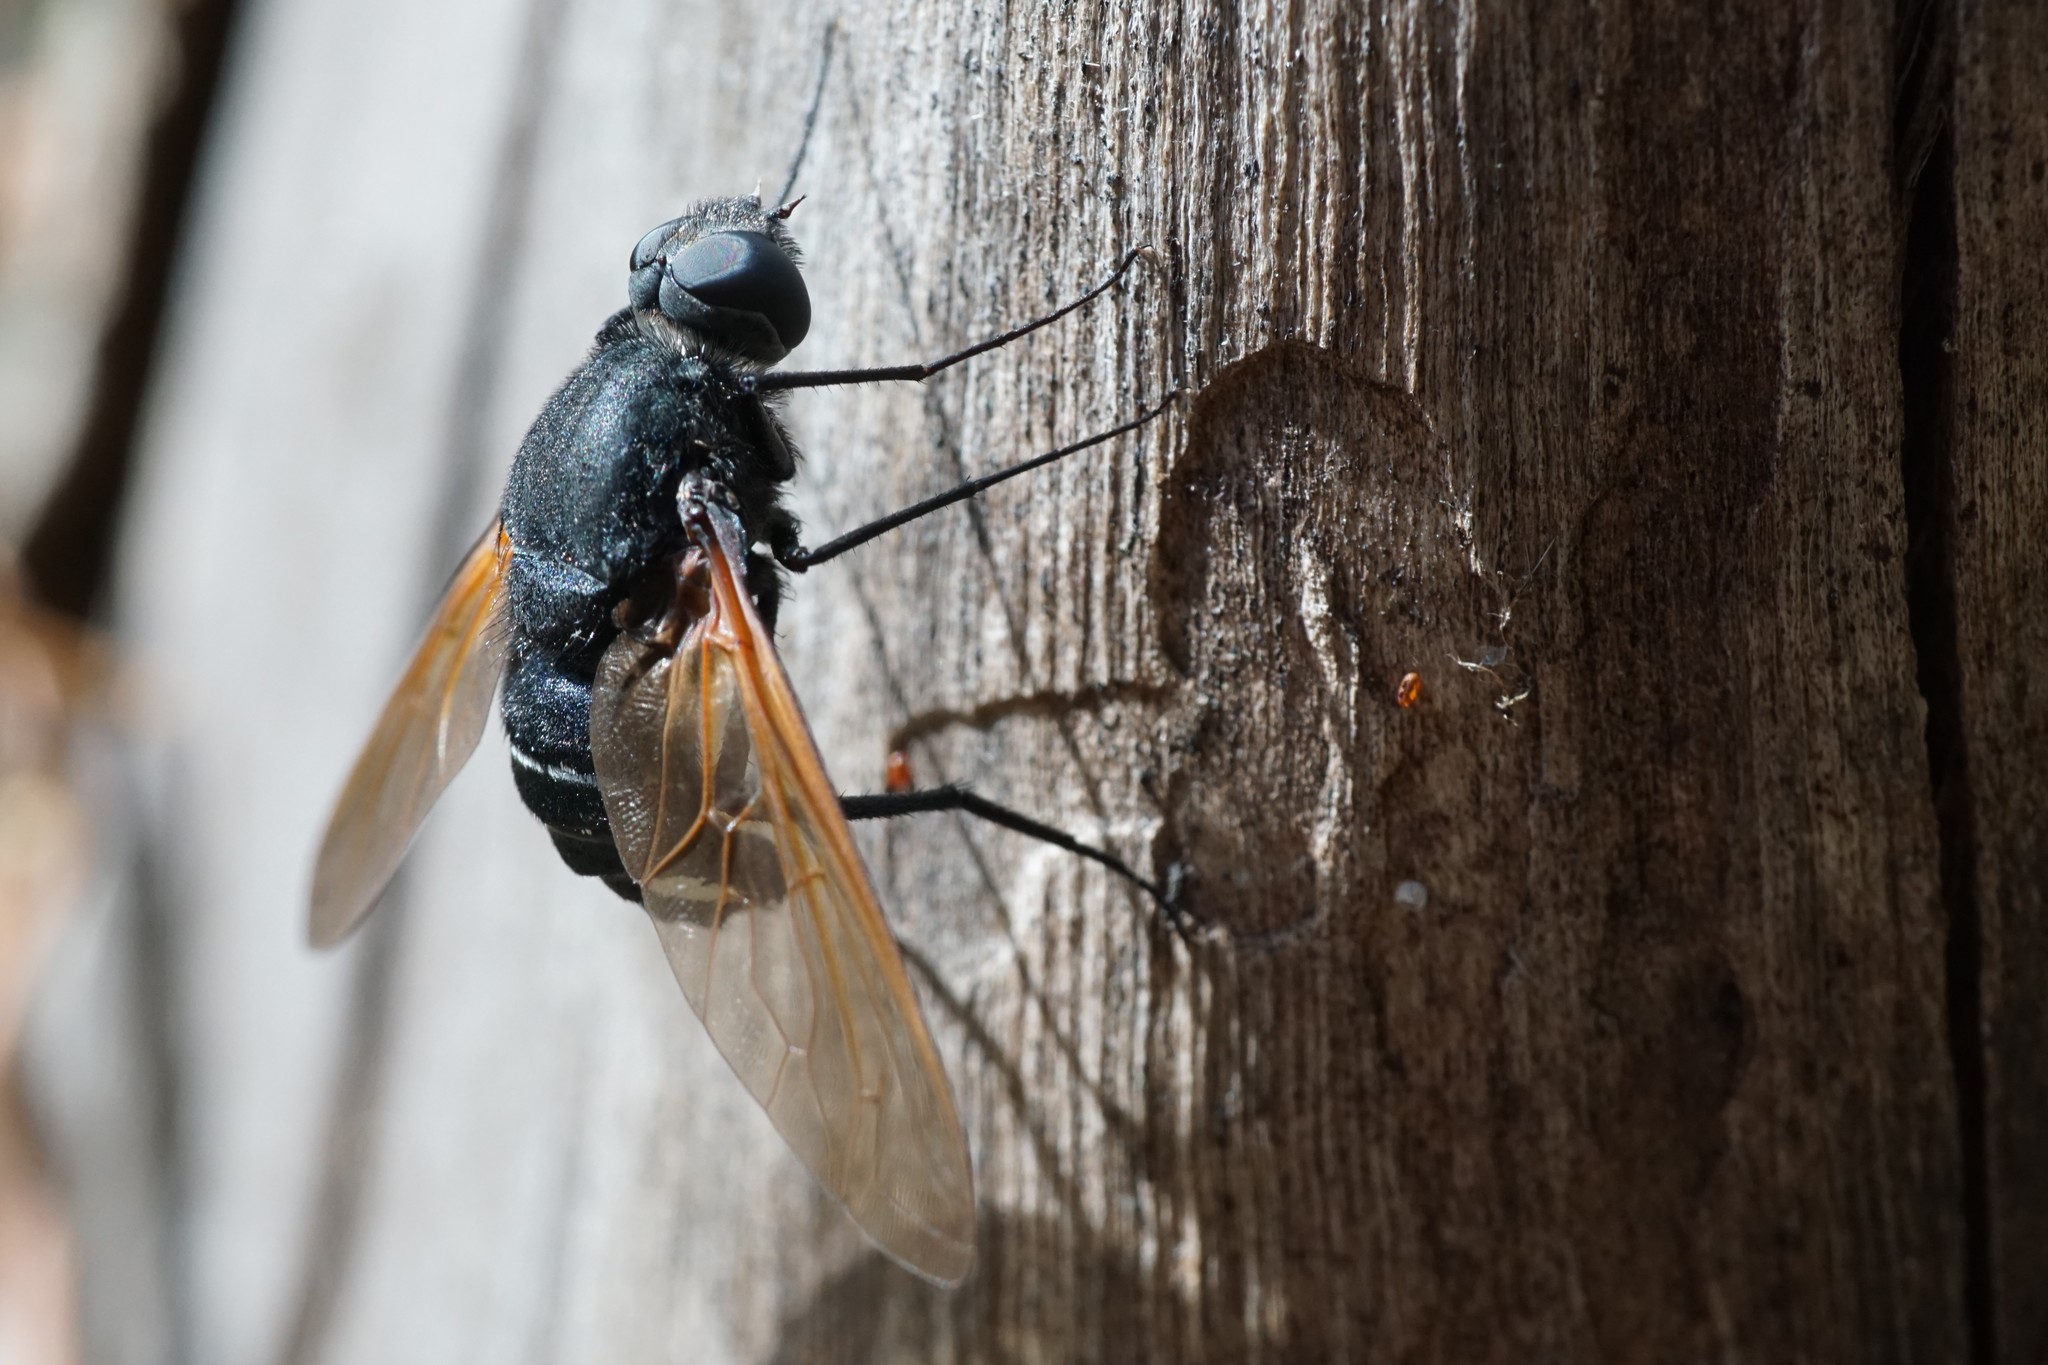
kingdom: Animalia
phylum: Arthropoda
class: Insecta
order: Diptera
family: Bombyliidae
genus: Satyramoeba
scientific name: Satyramoeba hetrusca
